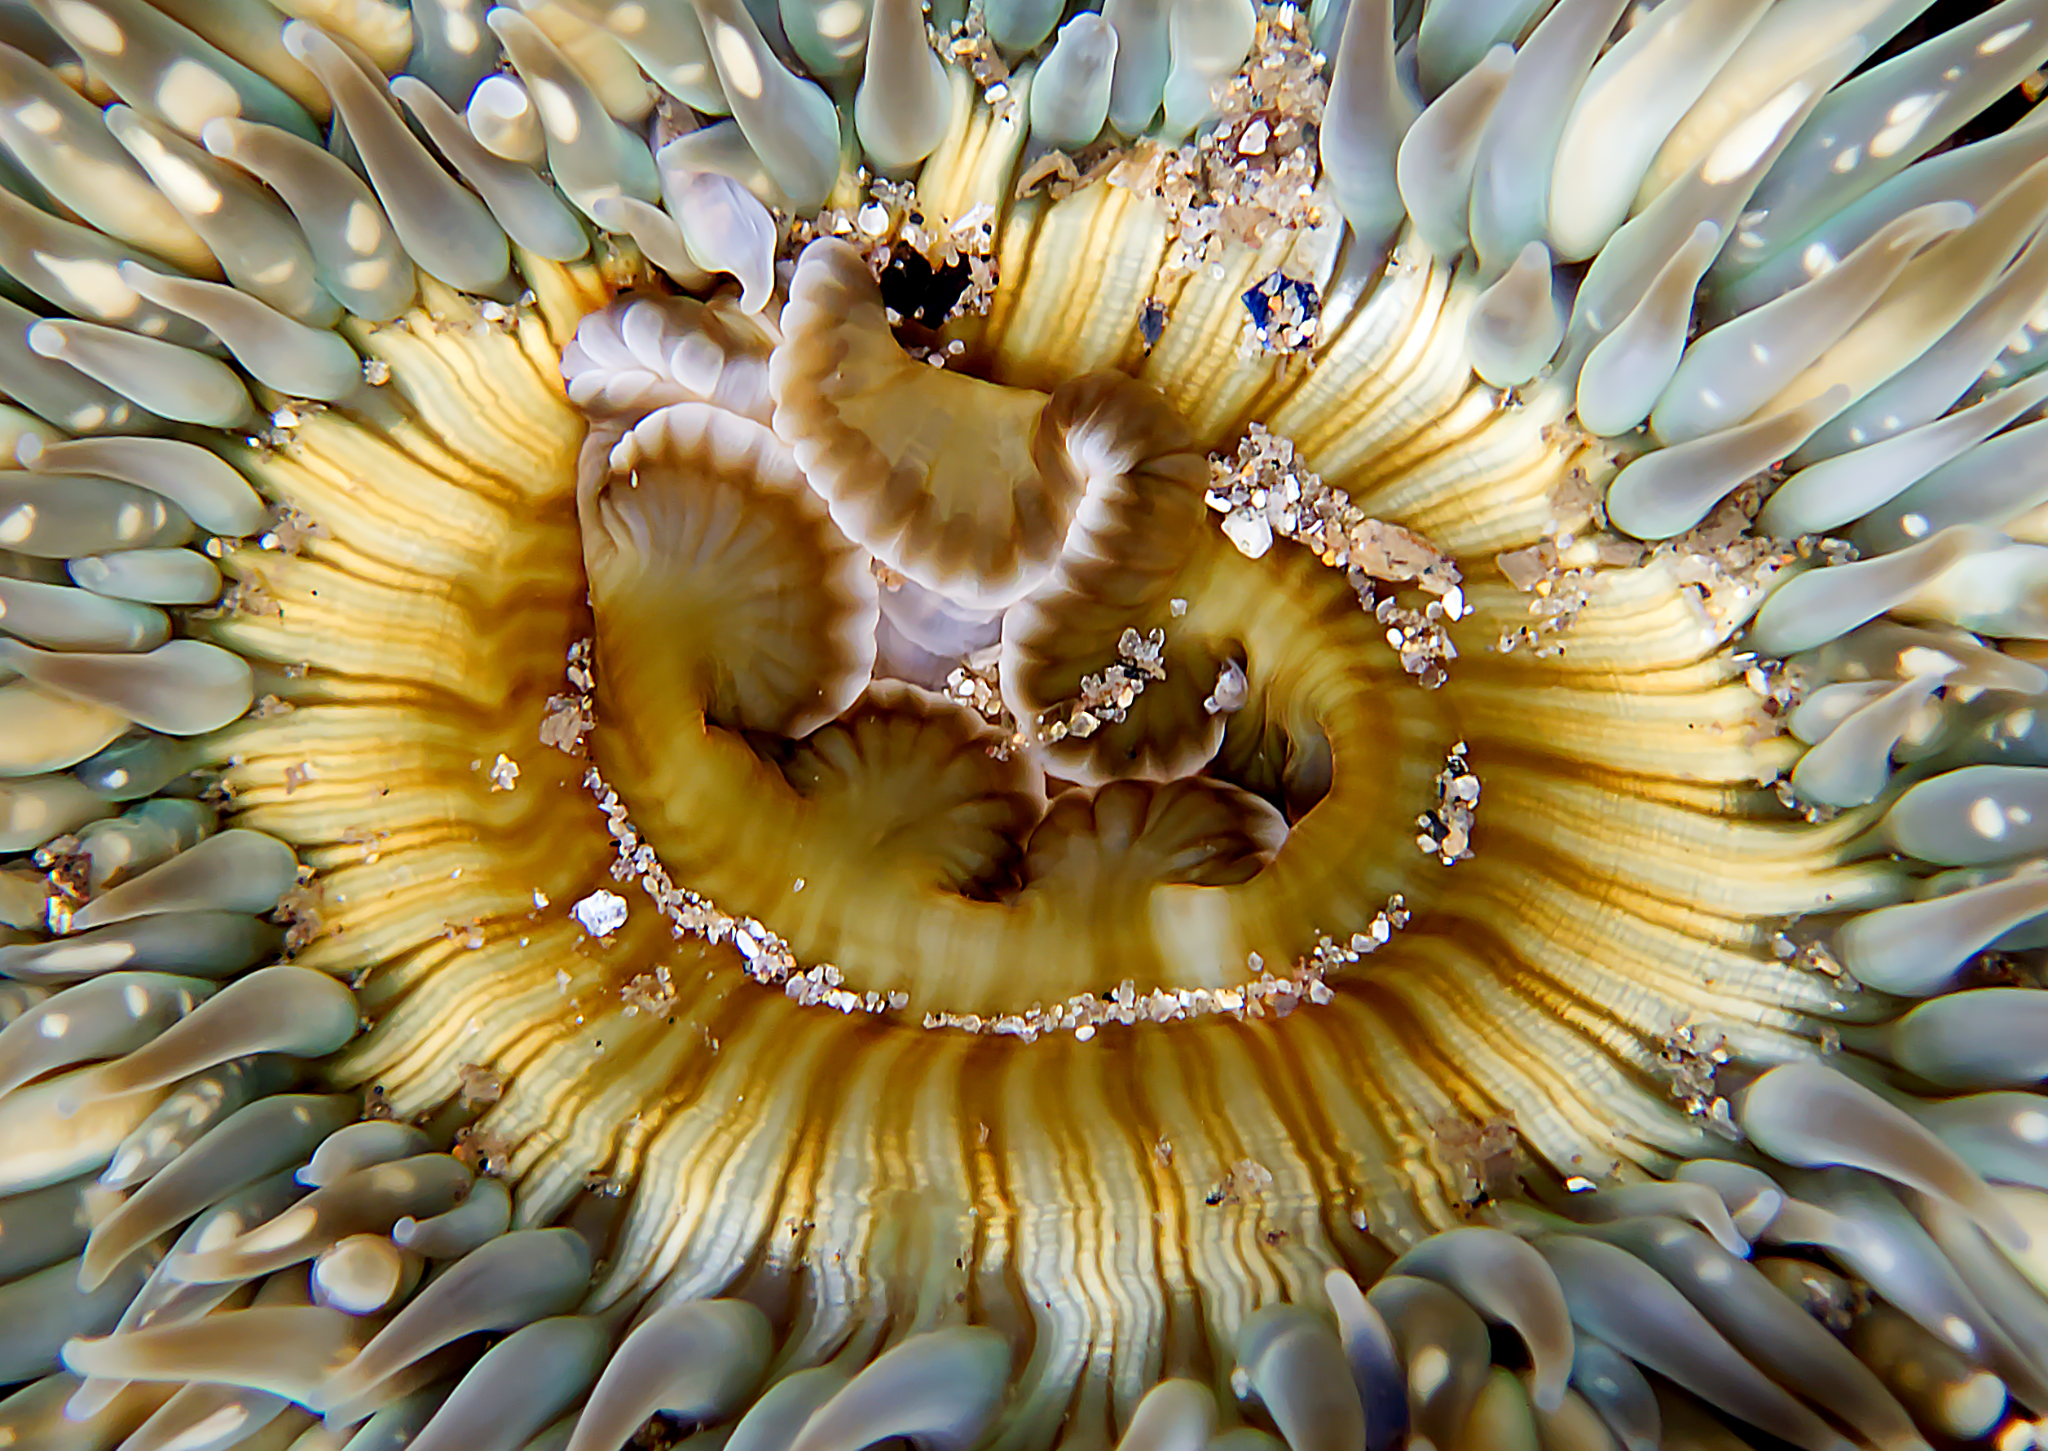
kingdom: Animalia
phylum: Cnidaria
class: Anthozoa
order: Actiniaria
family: Actiniidae
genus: Anthopleura
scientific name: Anthopleura sola
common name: Sun anemone
